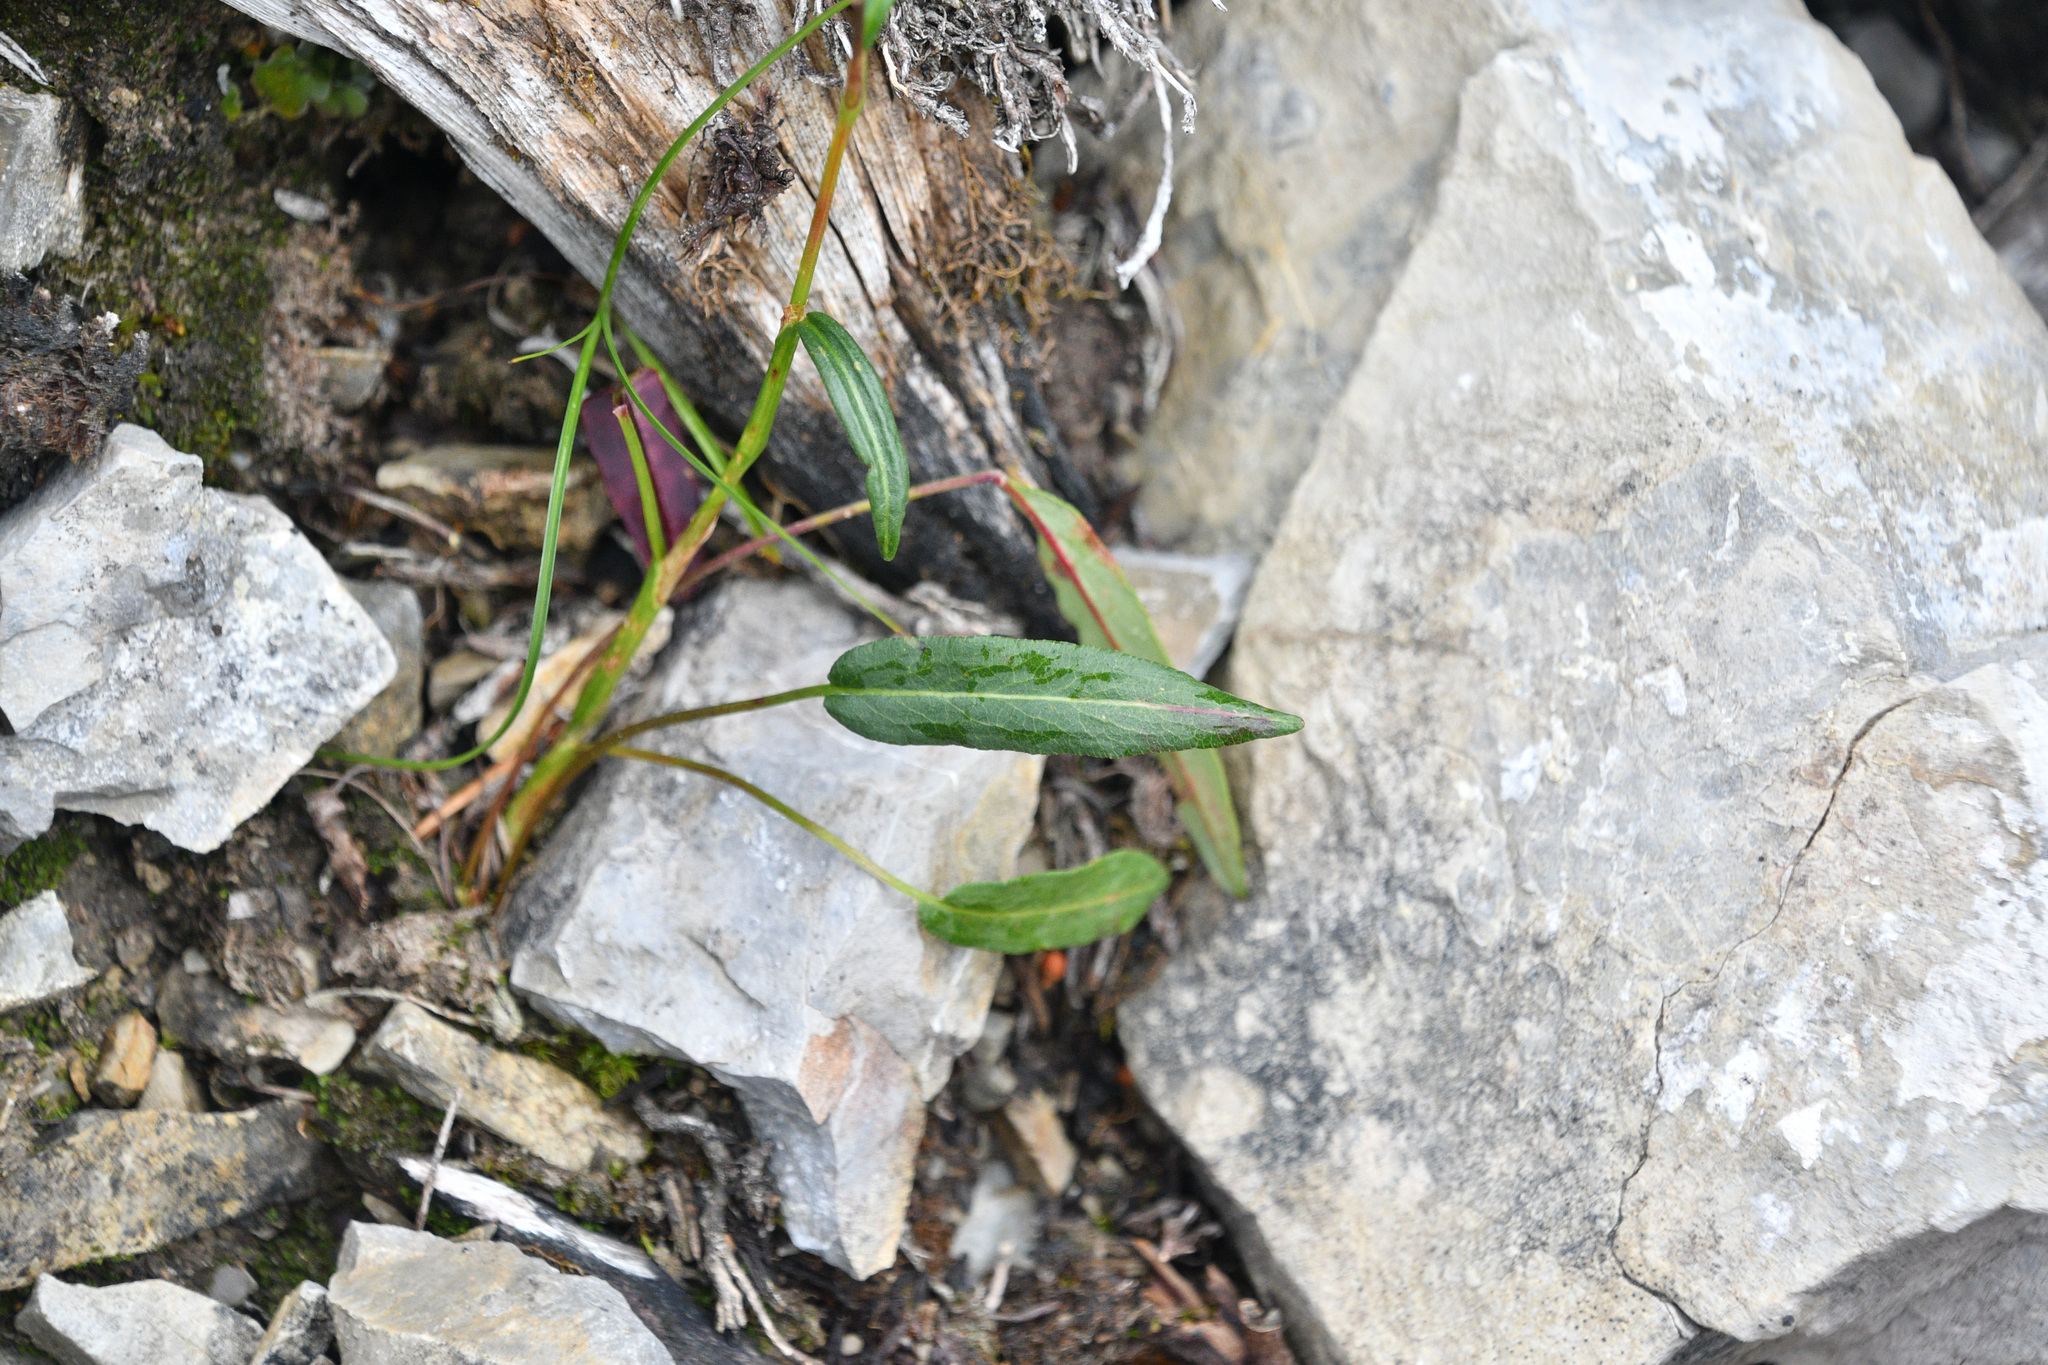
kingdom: Plantae
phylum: Tracheophyta
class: Magnoliopsida
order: Caryophyllales
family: Polygonaceae
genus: Bistorta
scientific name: Bistorta vivipara
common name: Alpine bistort
